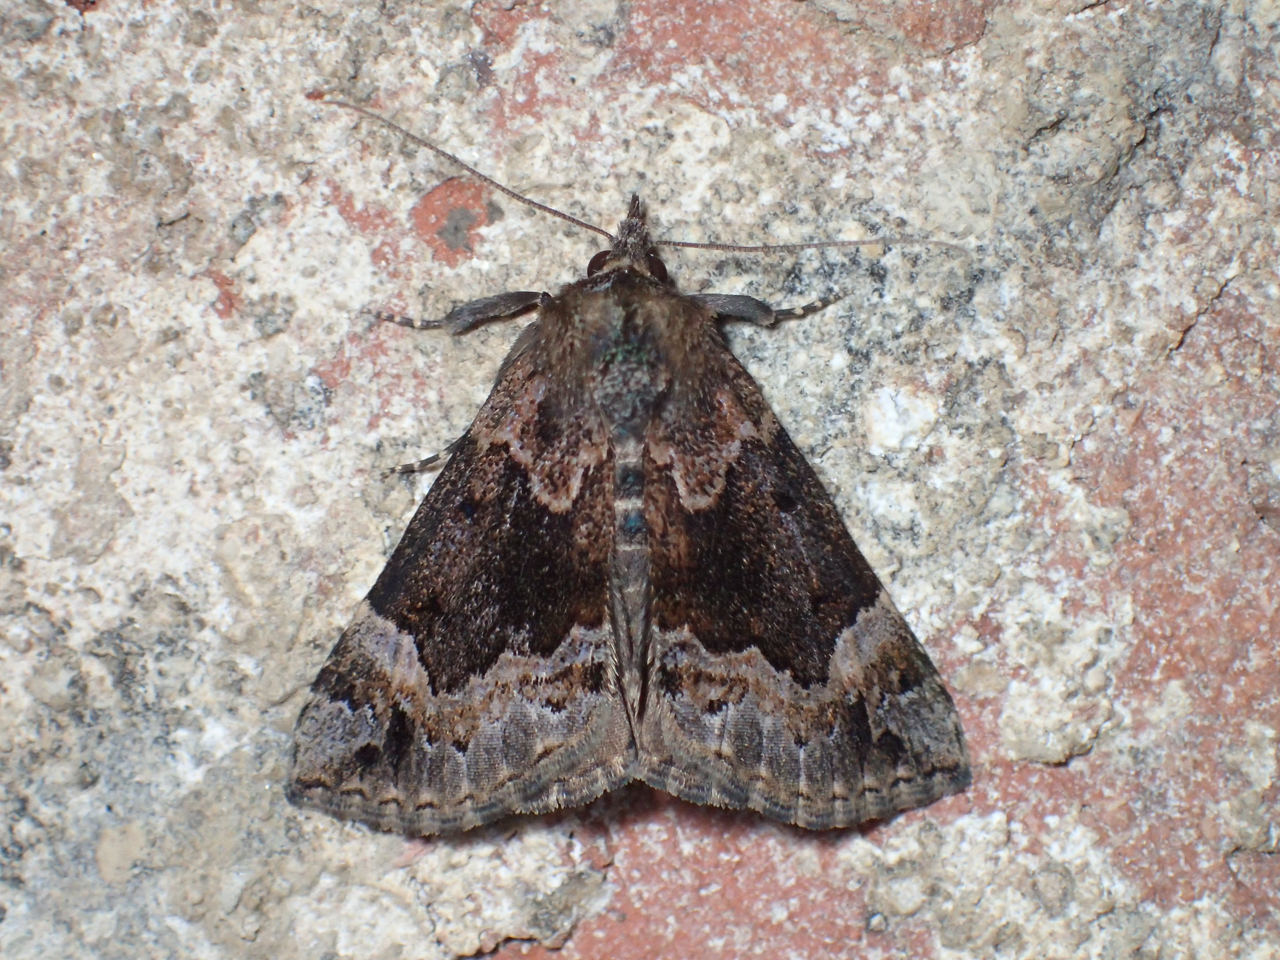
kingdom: Animalia
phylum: Arthropoda
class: Insecta
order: Lepidoptera
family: Erebidae
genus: Hypena
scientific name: Hypena palparia
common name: Mottled bomolocha moth
